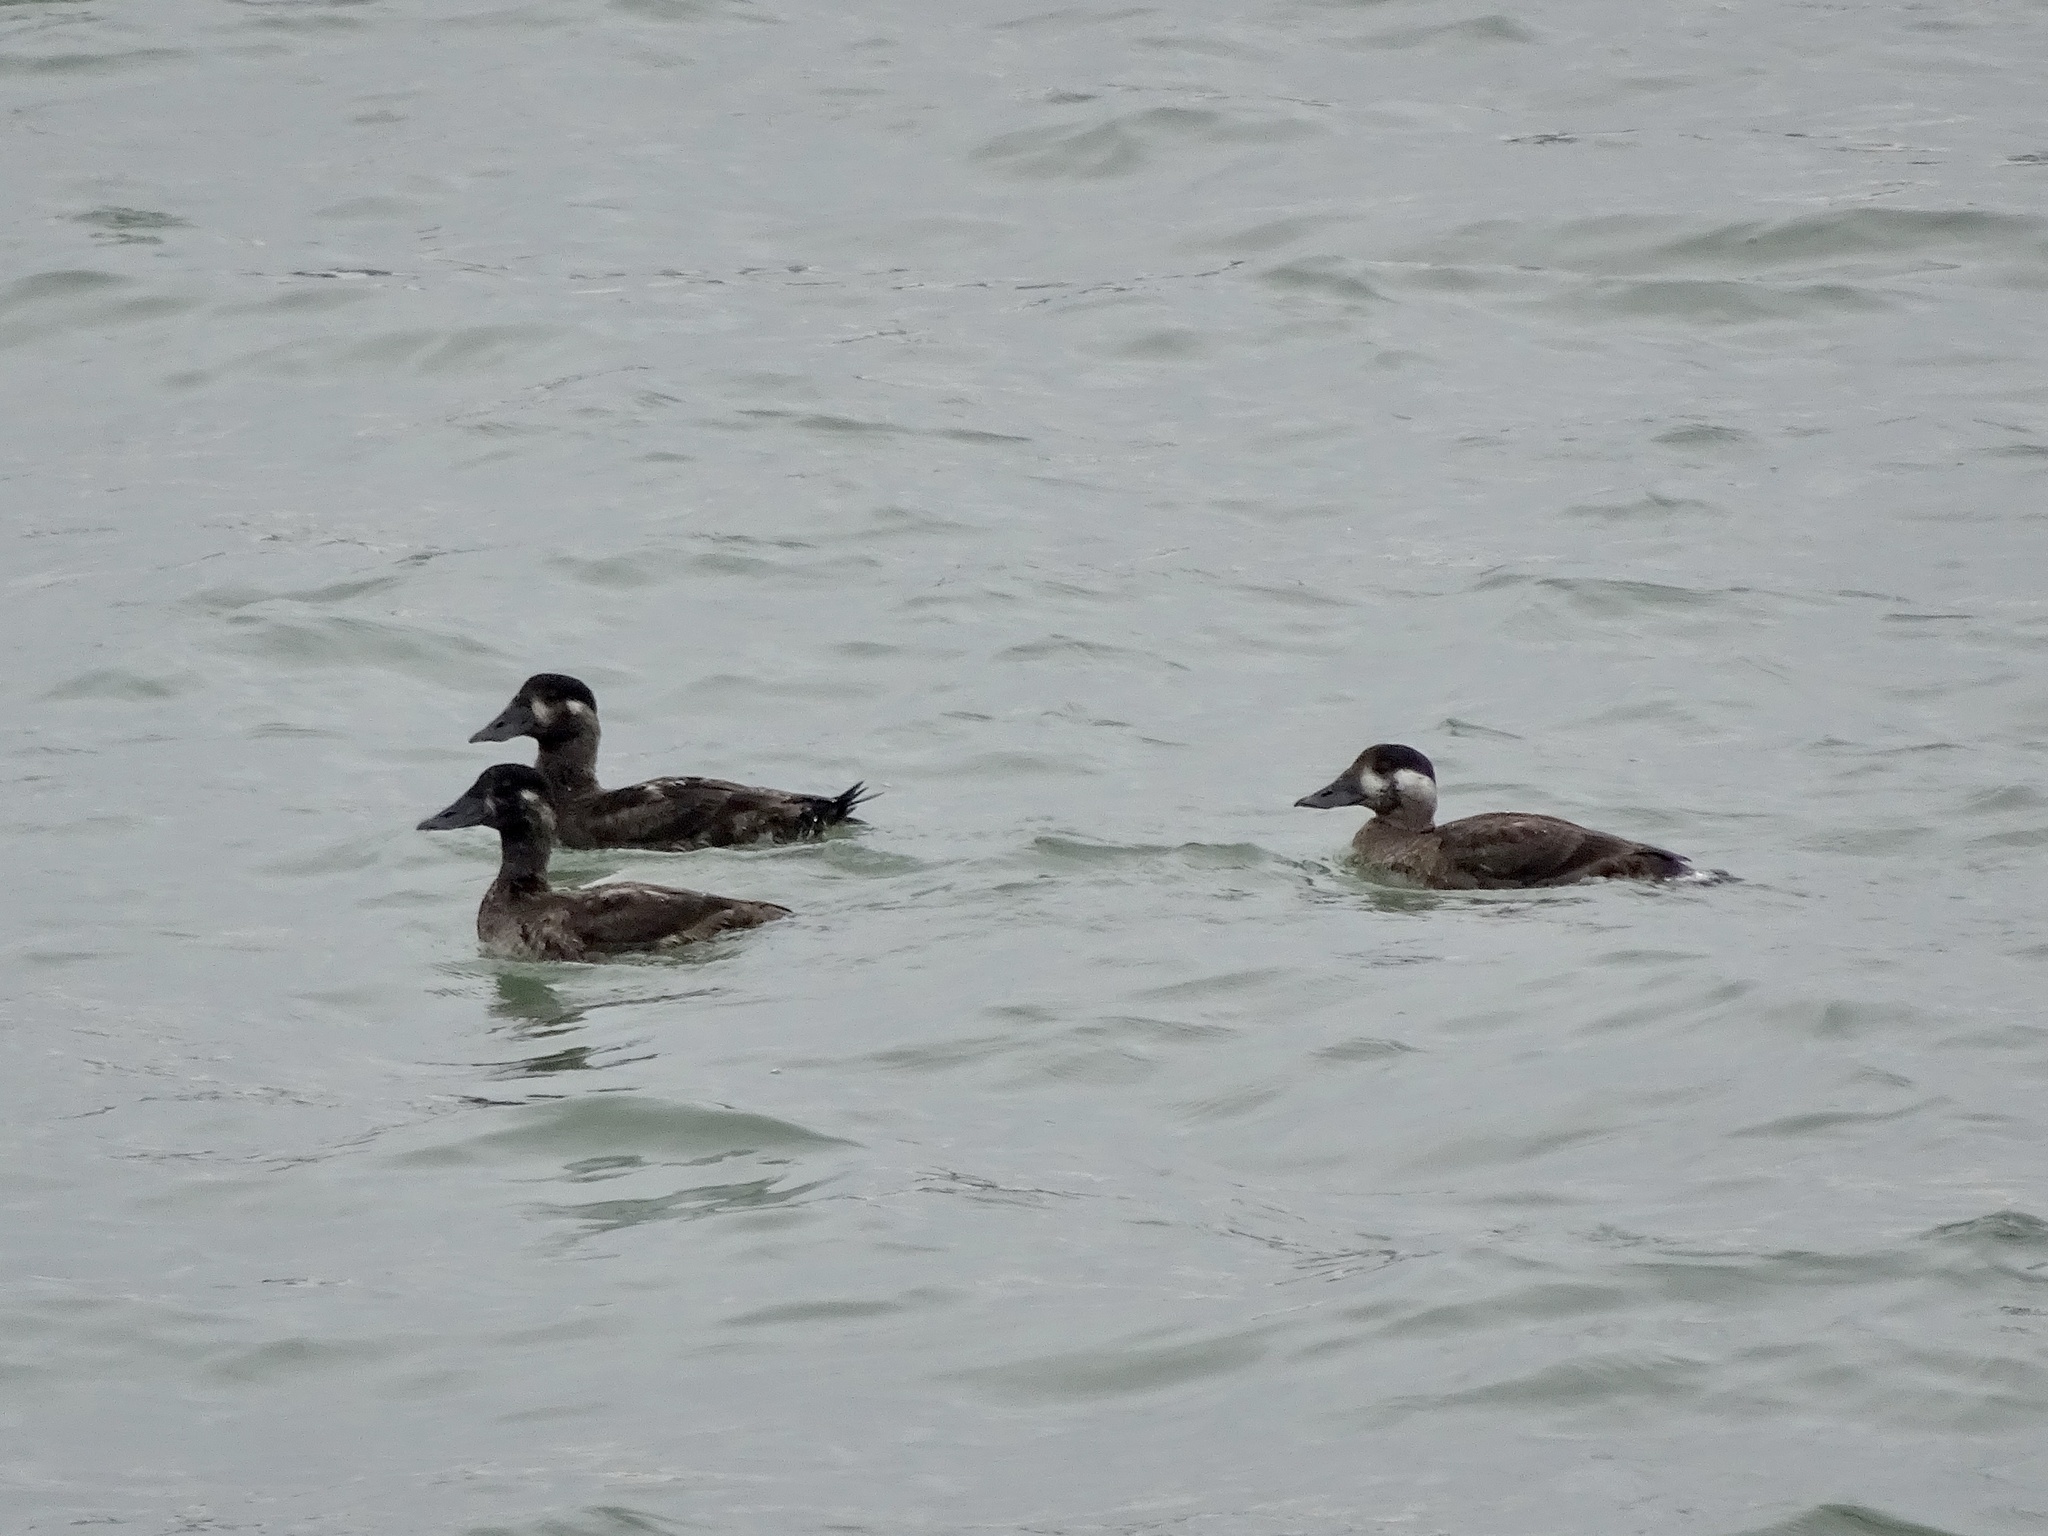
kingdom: Animalia
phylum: Chordata
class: Aves
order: Anseriformes
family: Anatidae
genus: Melanitta
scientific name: Melanitta perspicillata
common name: Surf scoter
